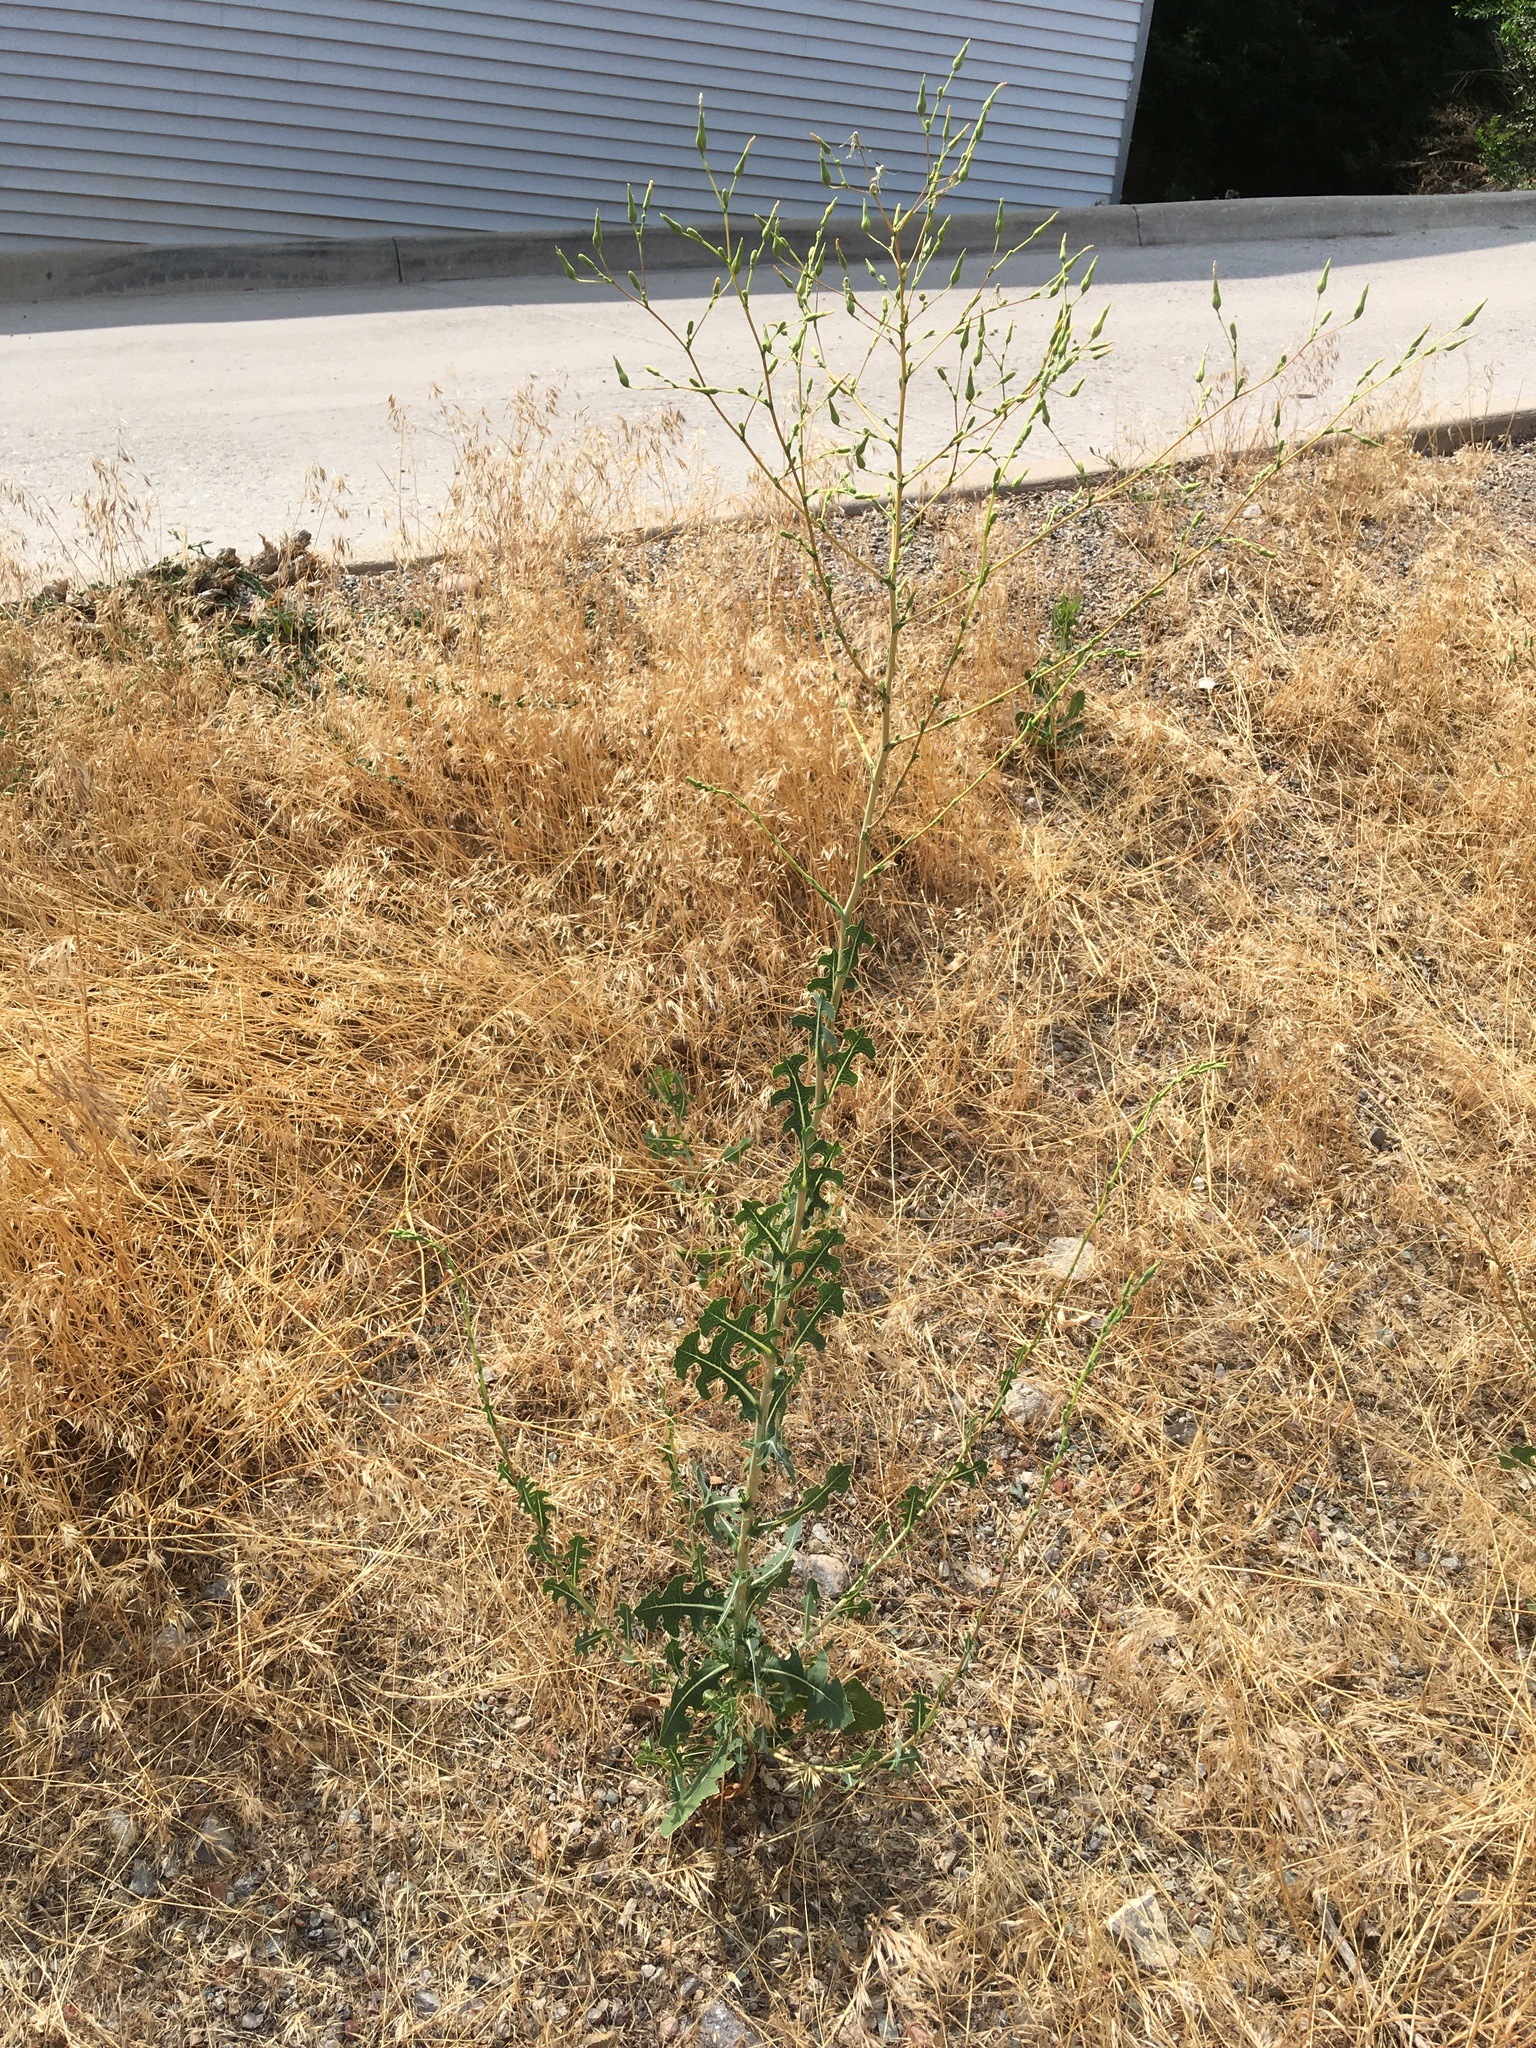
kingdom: Plantae
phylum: Tracheophyta
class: Magnoliopsida
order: Asterales
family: Asteraceae
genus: Lactuca
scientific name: Lactuca serriola
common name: Prickly lettuce
